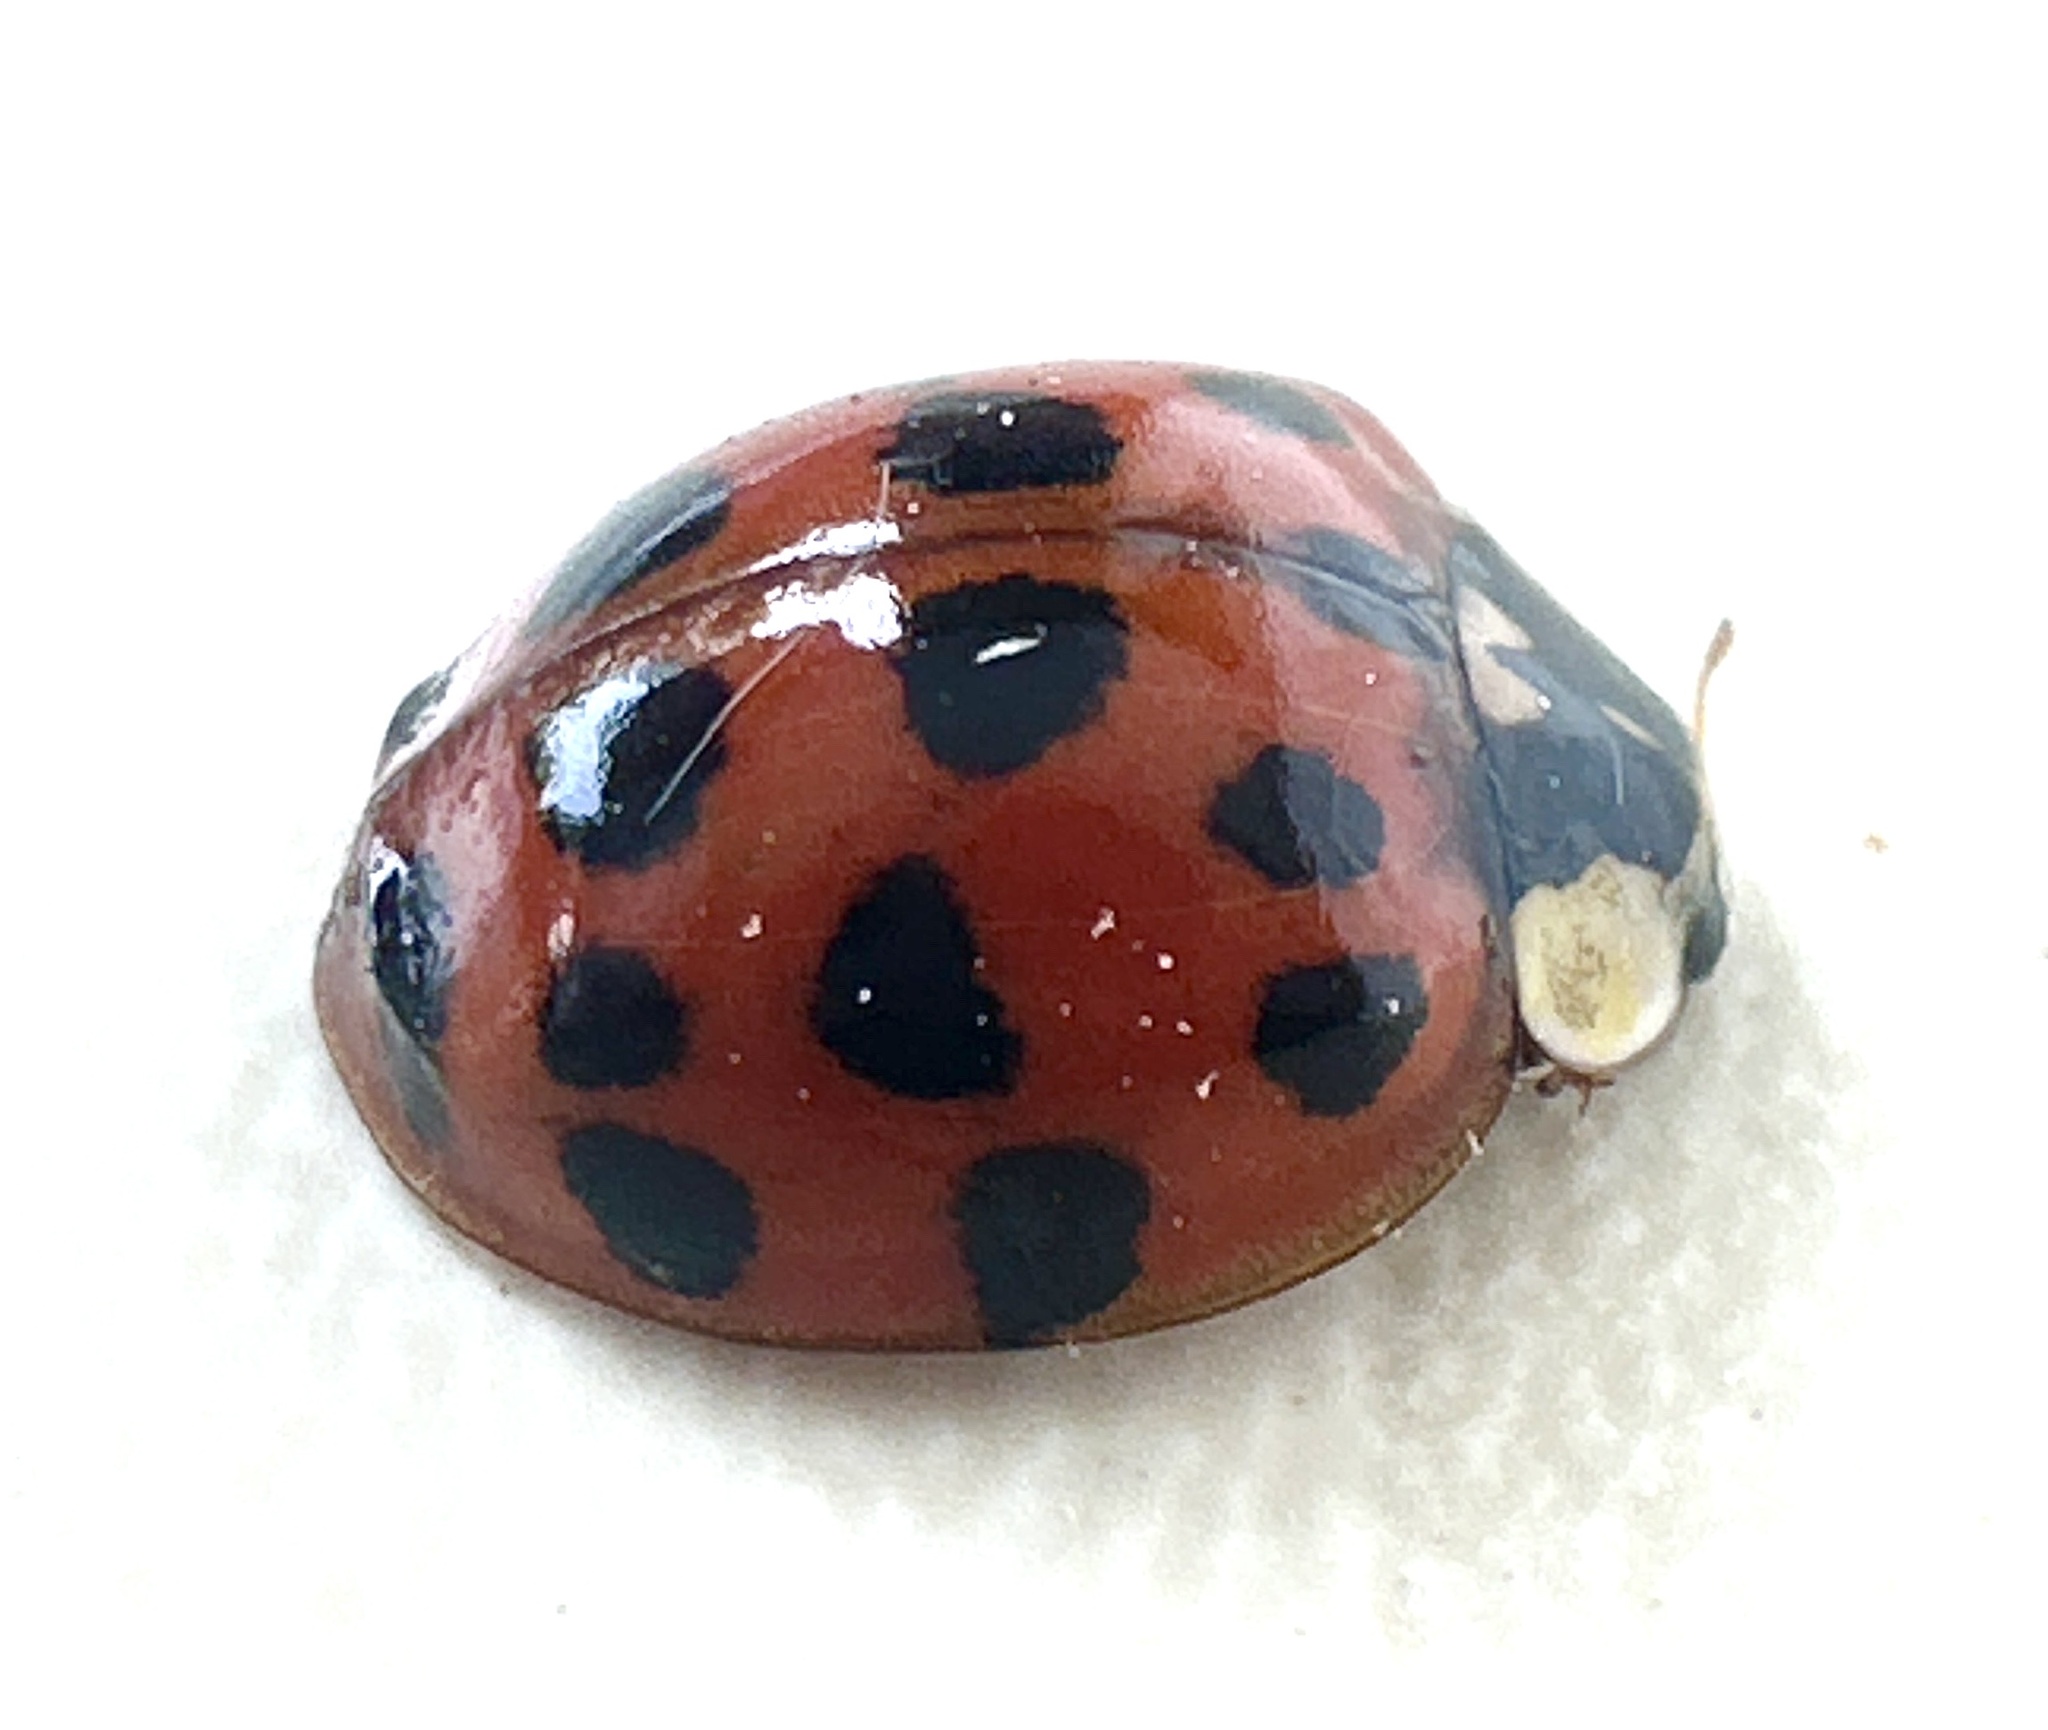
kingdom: Animalia
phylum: Arthropoda
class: Insecta
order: Coleoptera
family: Coccinellidae
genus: Harmonia
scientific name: Harmonia axyridis
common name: Harlequin ladybird
